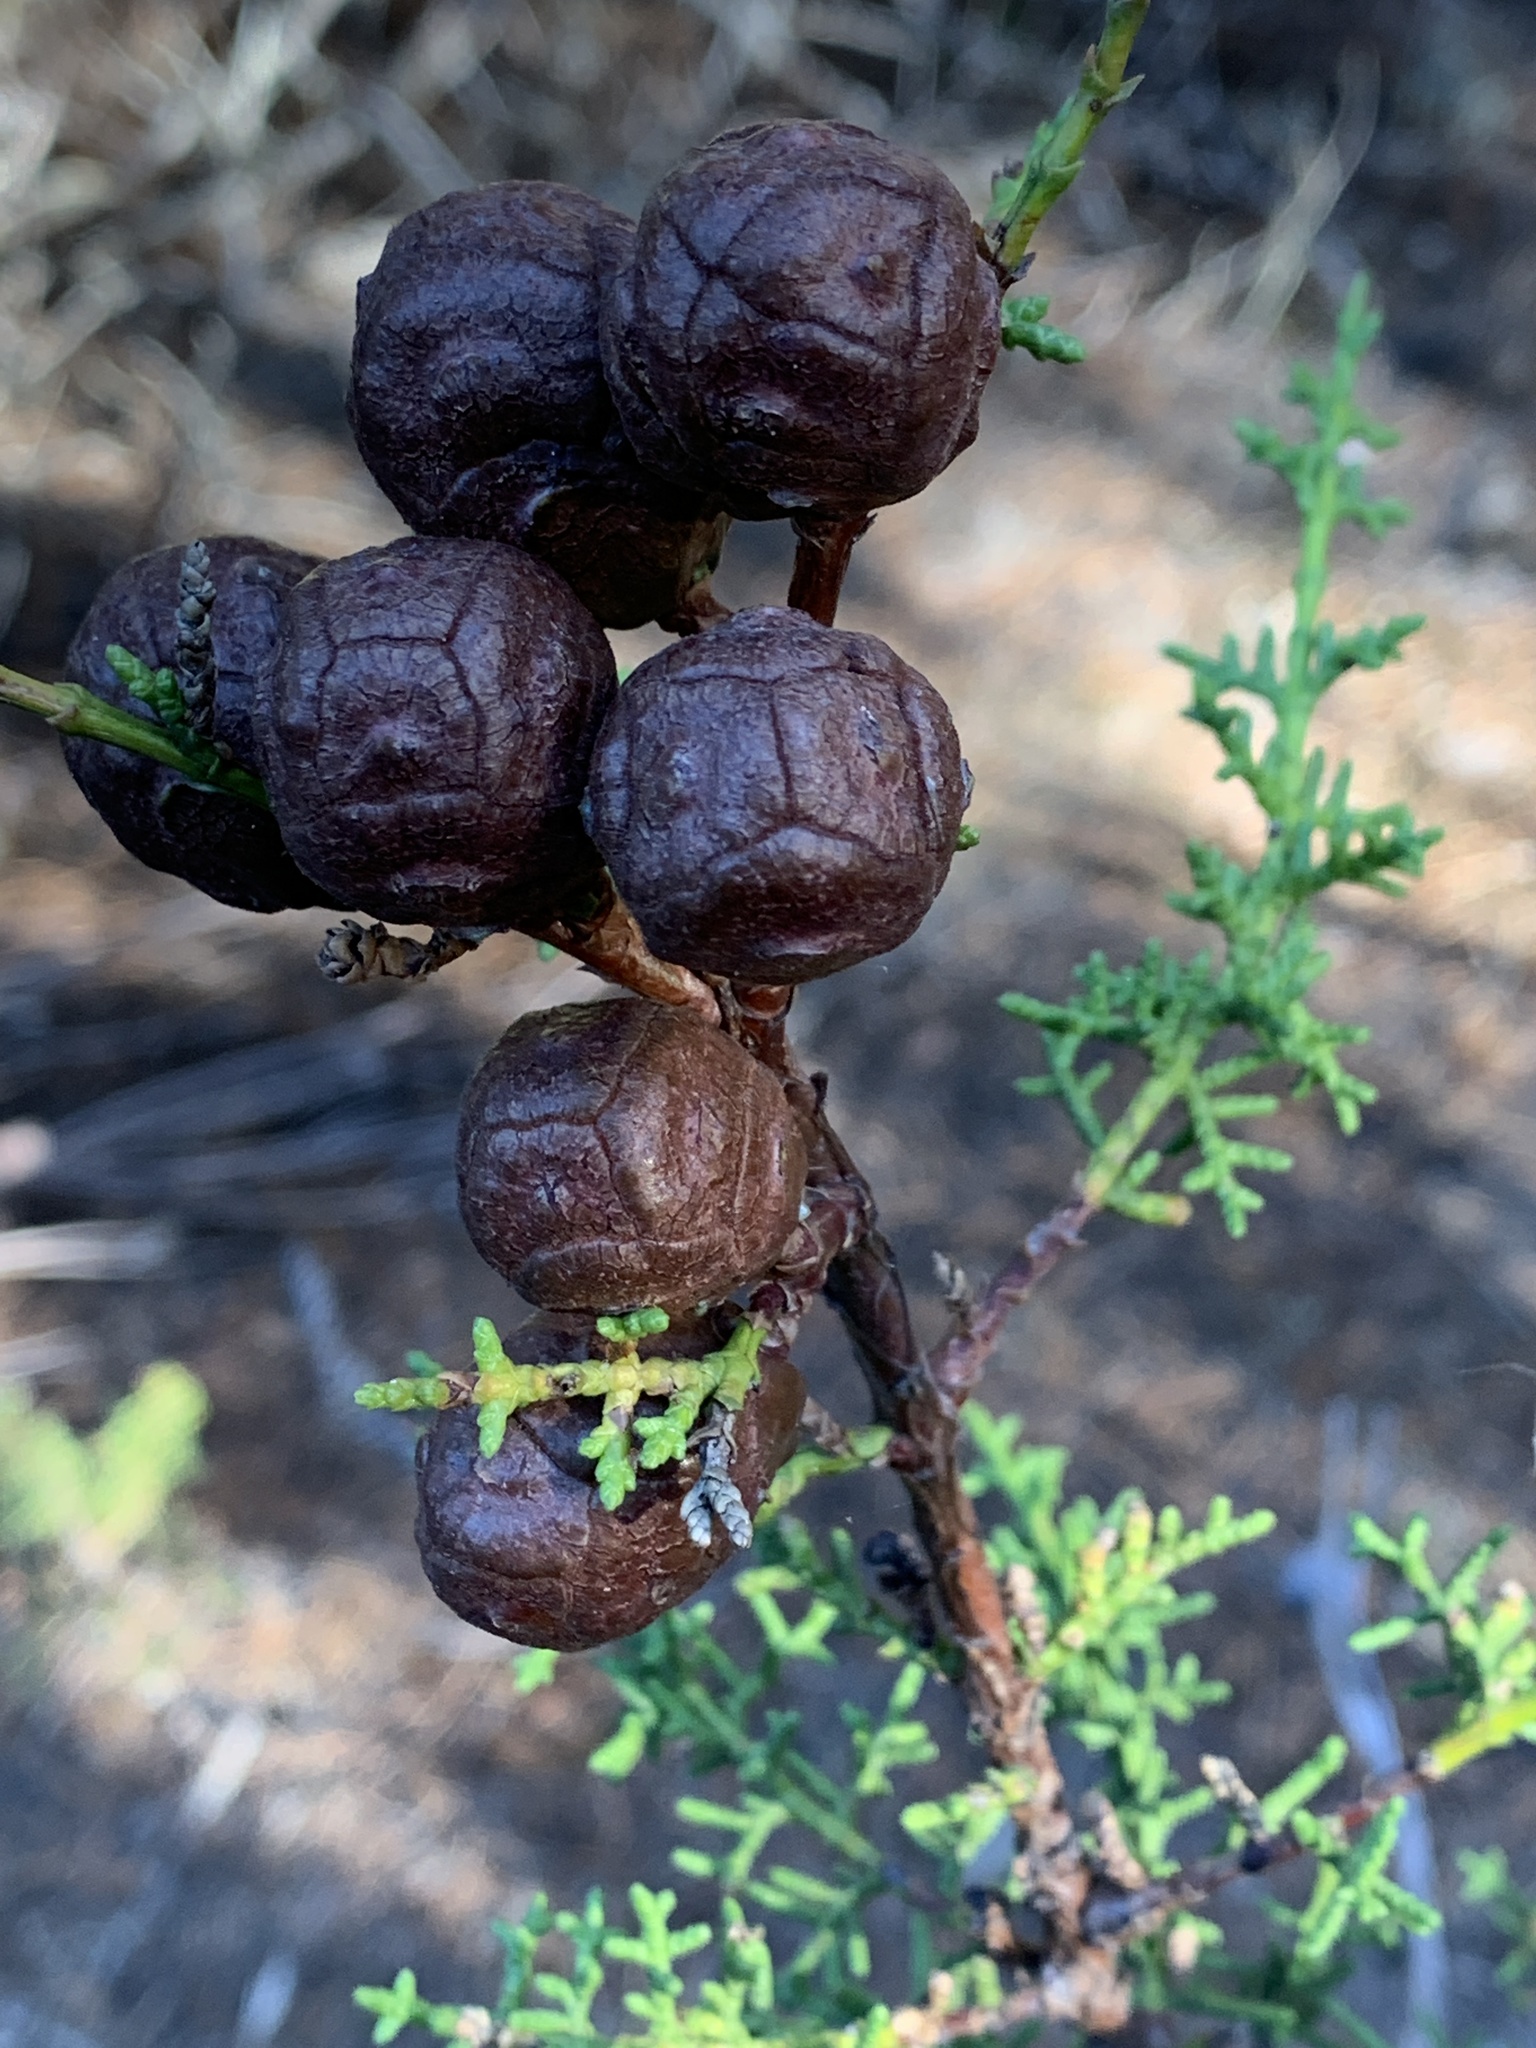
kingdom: Plantae
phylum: Tracheophyta
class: Pinopsida
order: Pinales
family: Cupressaceae
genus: Cupressus
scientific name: Cupressus goveniana
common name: Gowen cypress
